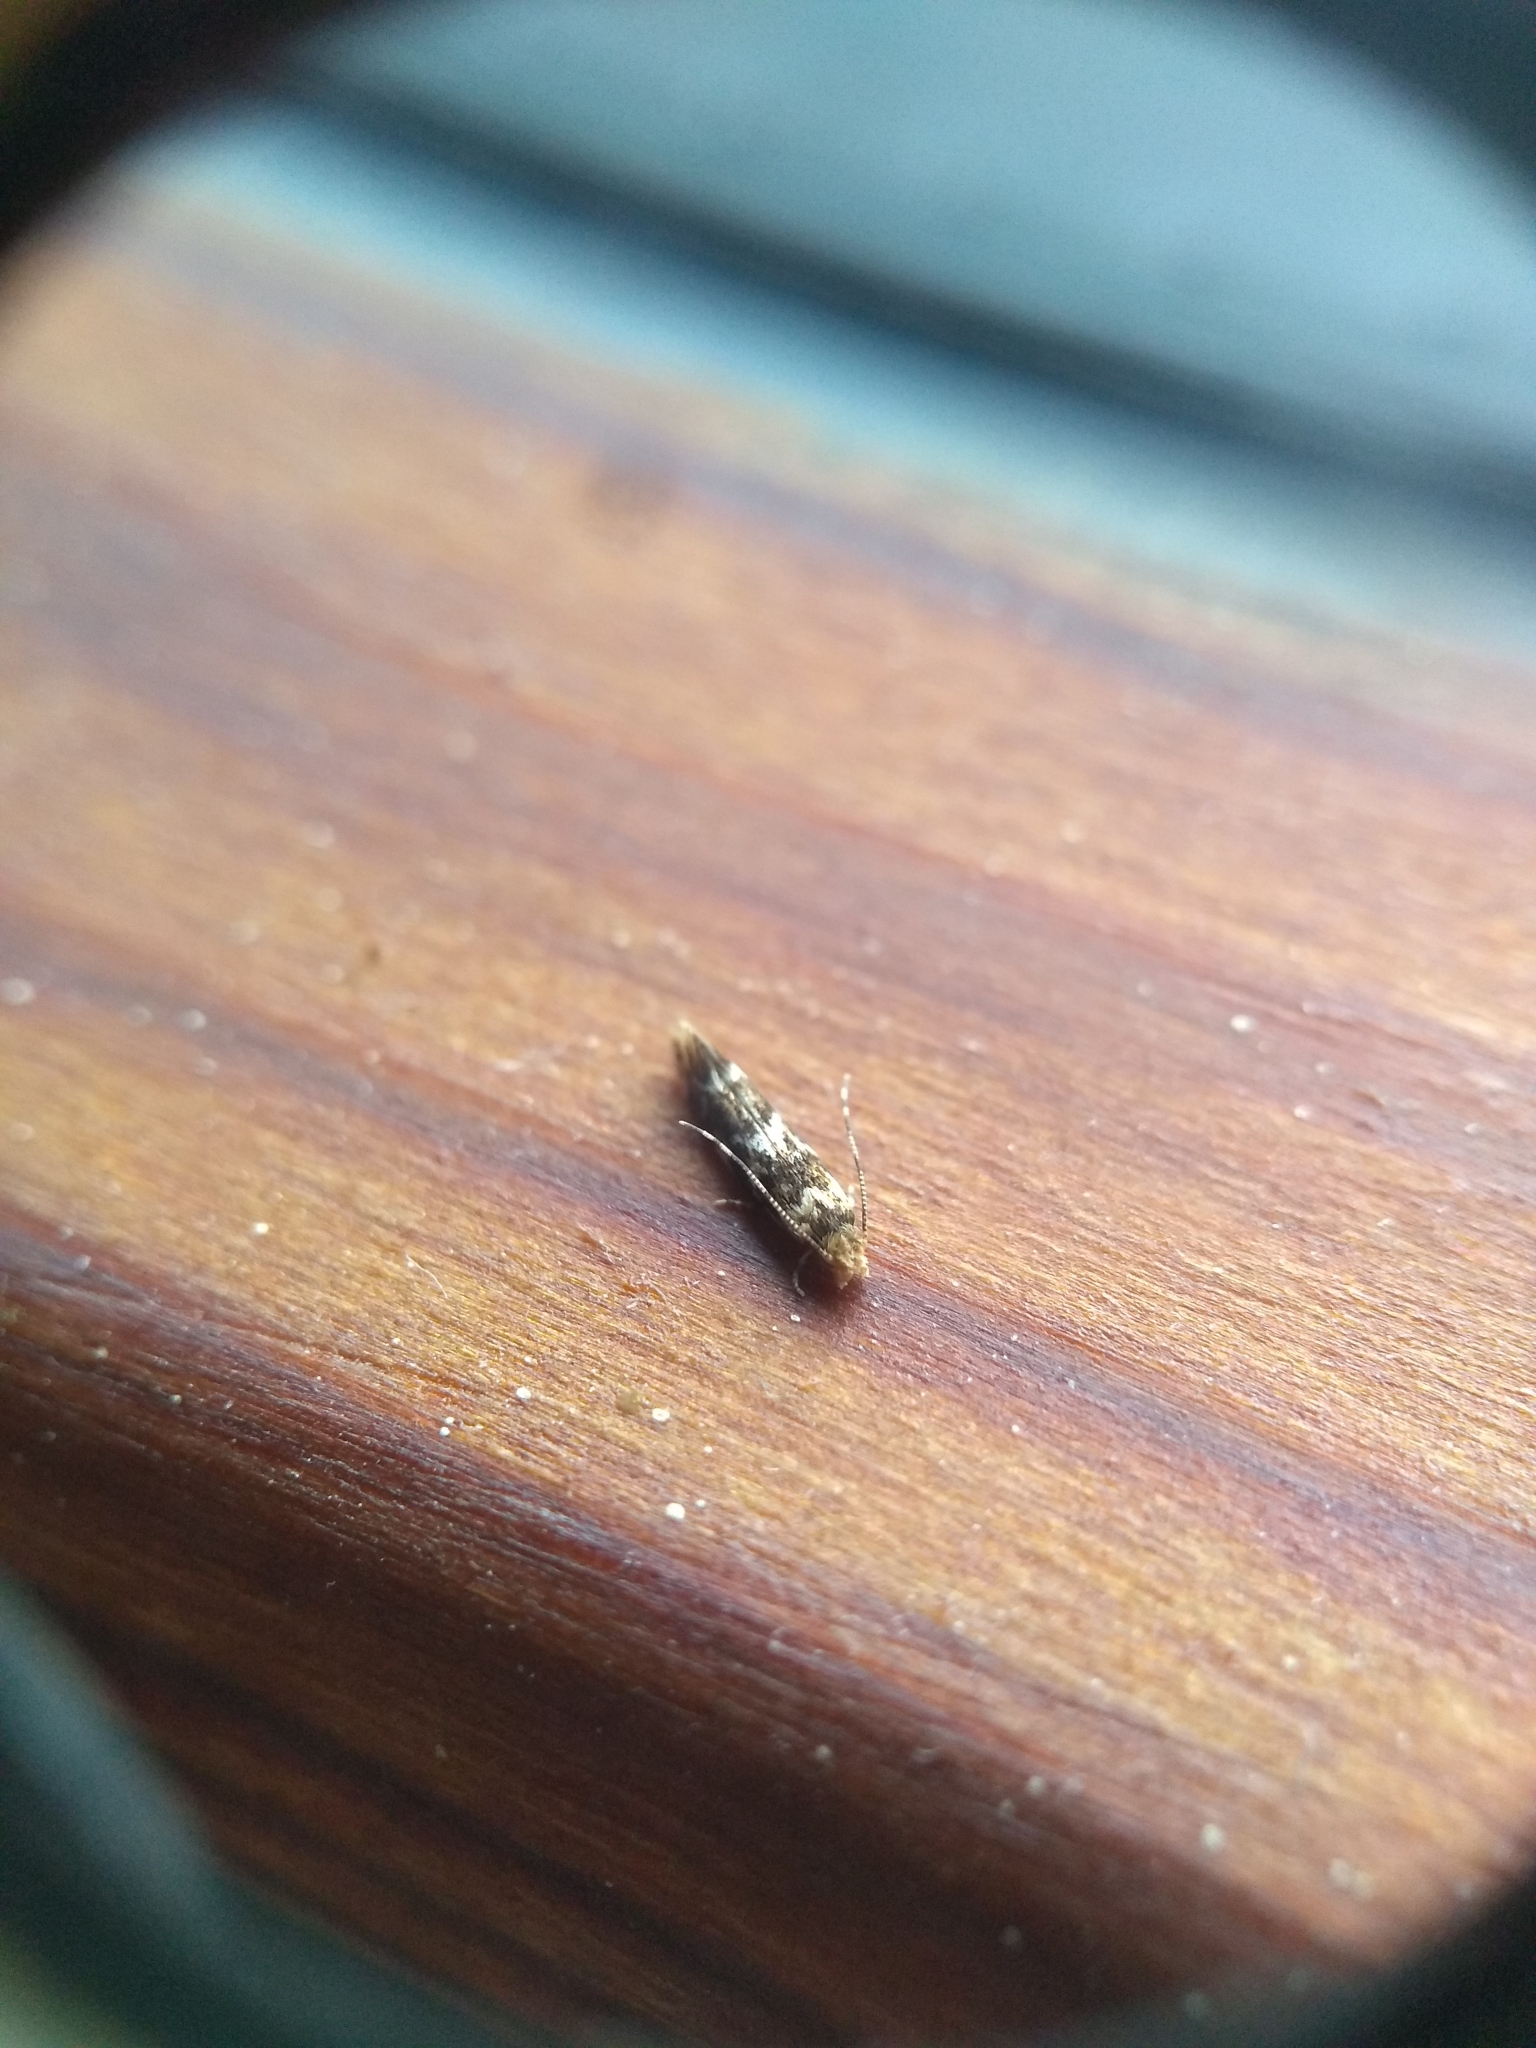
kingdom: Animalia
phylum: Arthropoda
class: Insecta
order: Lepidoptera
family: Dryadaulidae
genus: Dryadaula
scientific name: Dryadaula pactolia
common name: Cellar clothes
